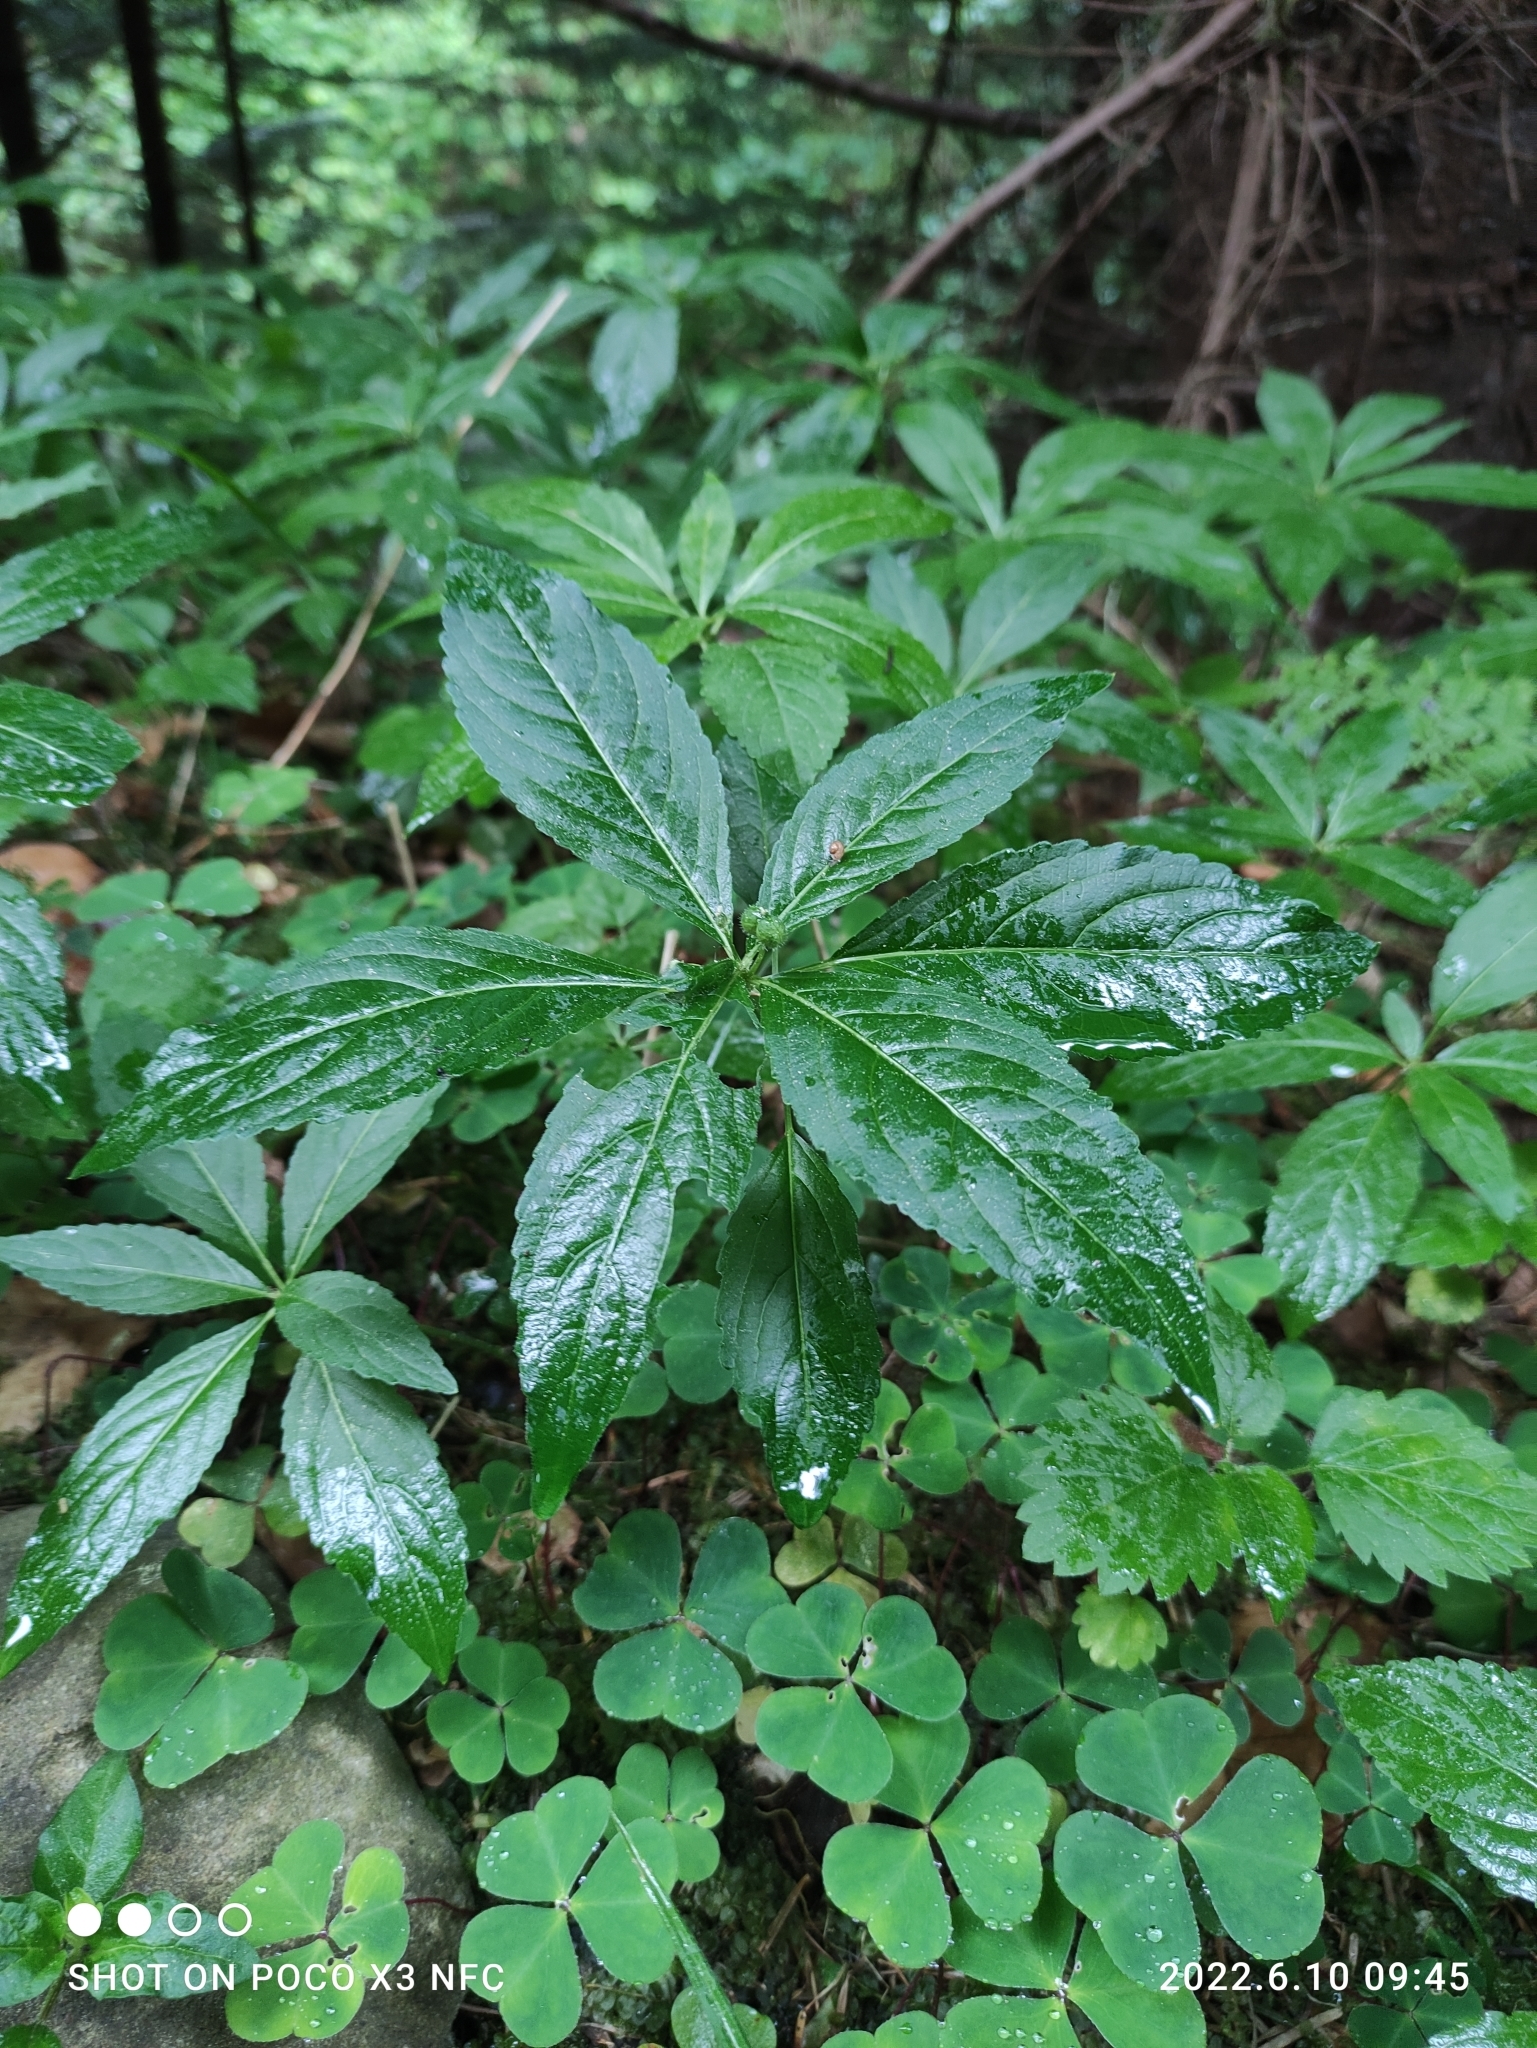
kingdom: Plantae
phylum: Tracheophyta
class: Magnoliopsida
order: Malpighiales
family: Euphorbiaceae
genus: Mercurialis
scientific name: Mercurialis perennis
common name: Dog mercury
